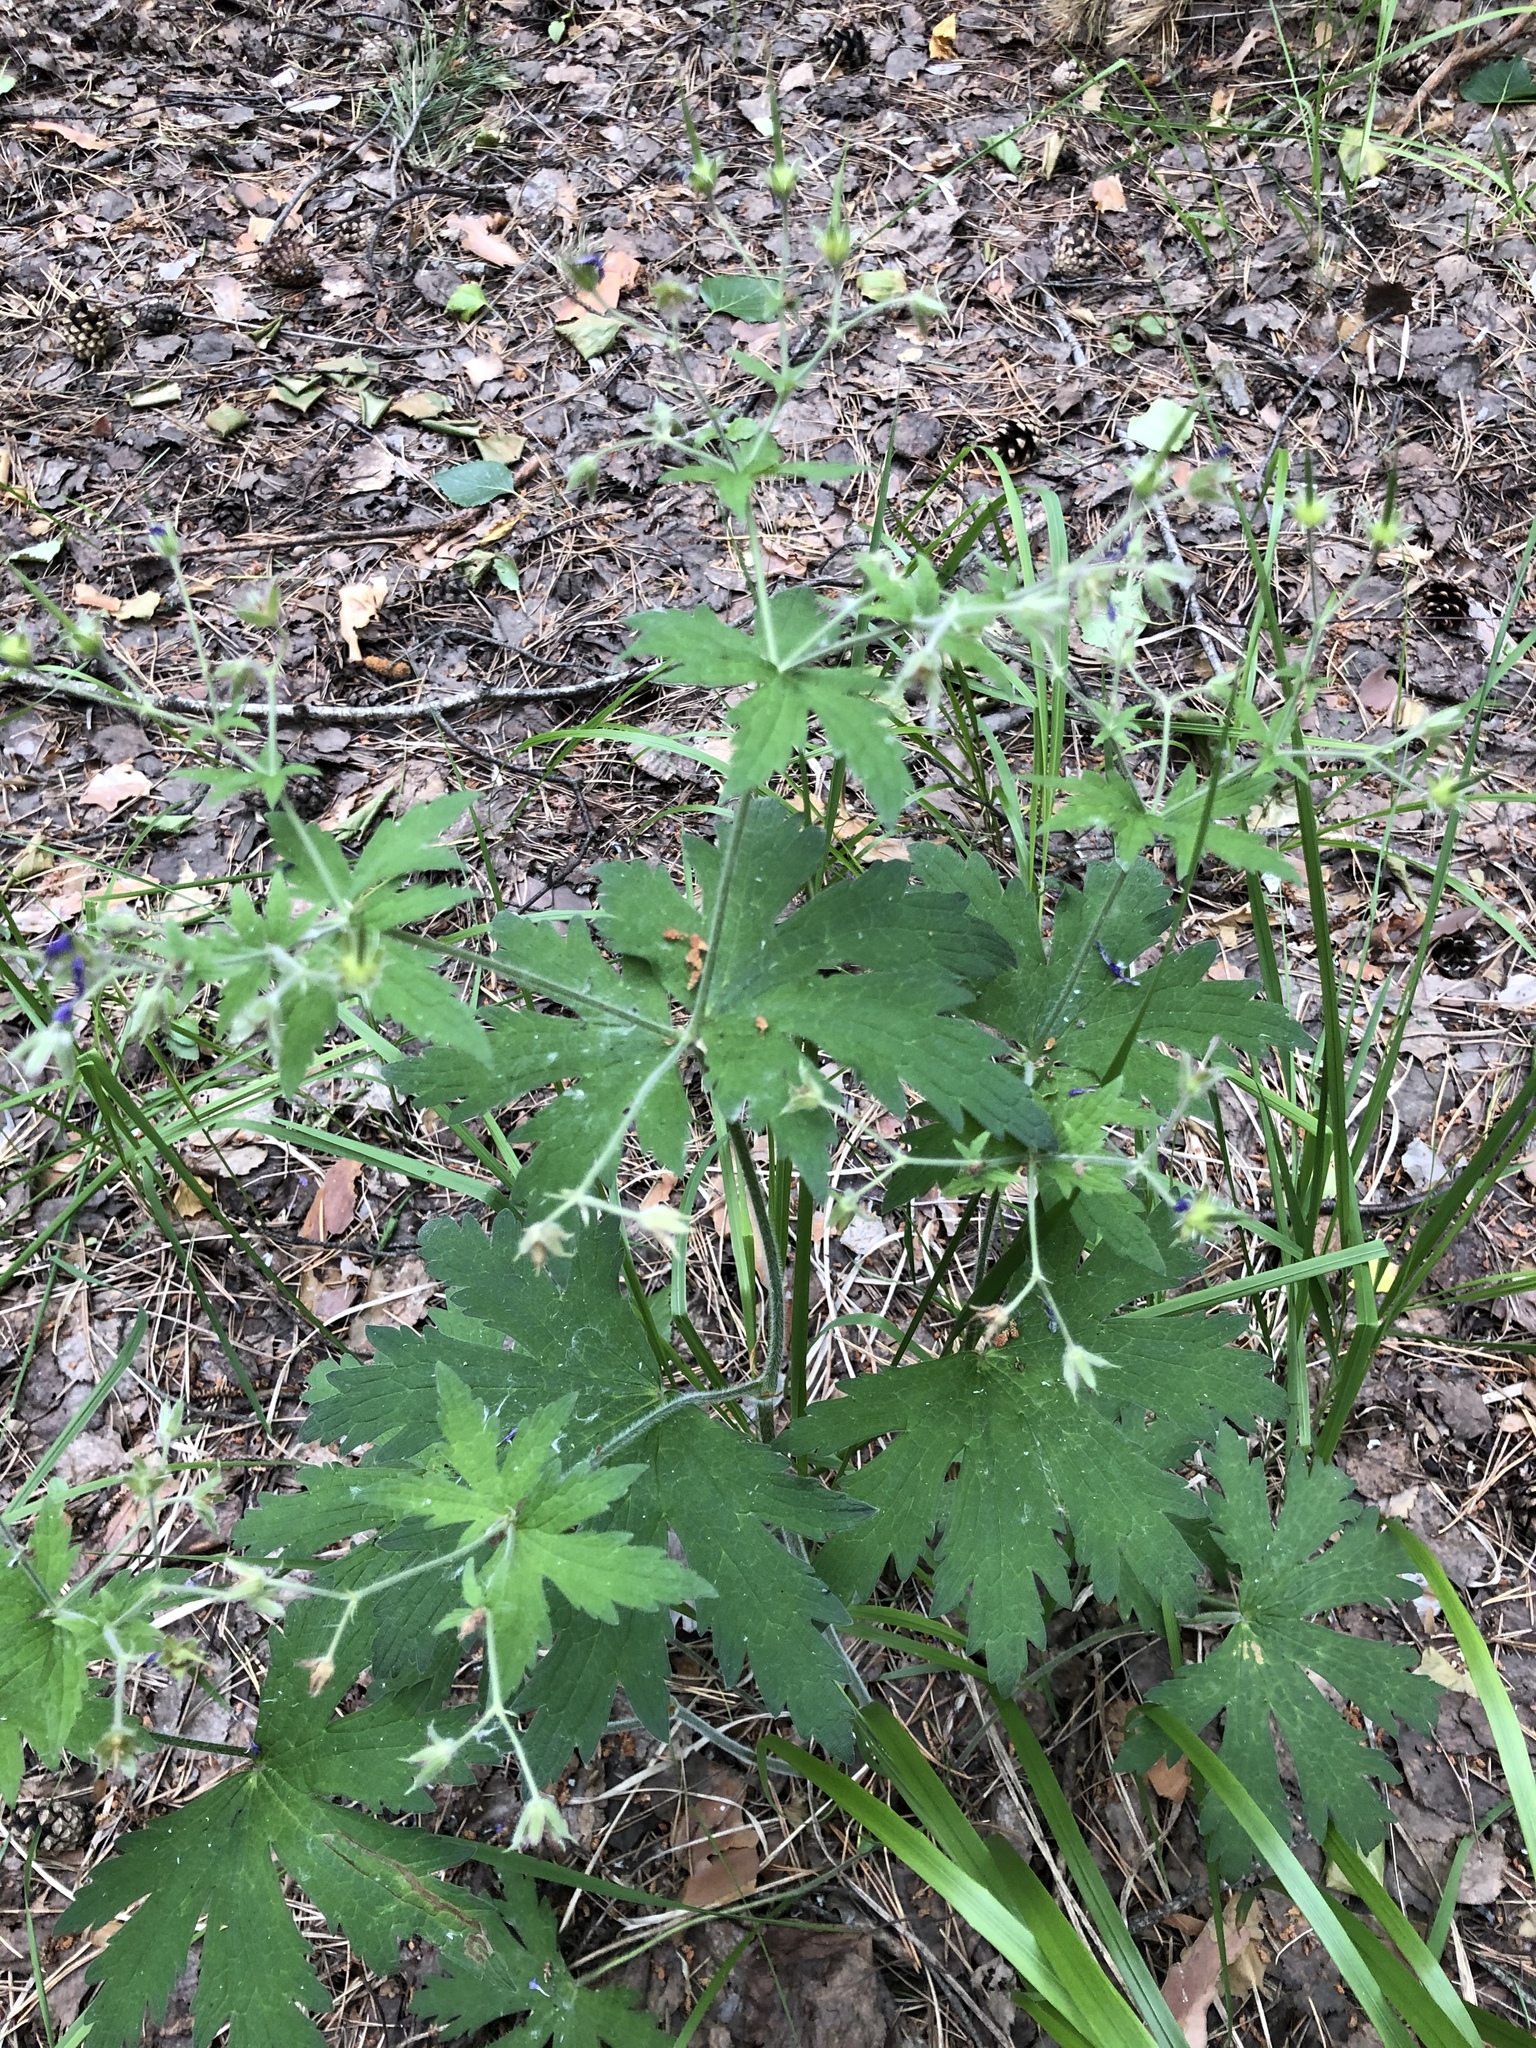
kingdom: Plantae
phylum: Tracheophyta
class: Magnoliopsida
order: Geraniales
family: Geraniaceae
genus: Geranium
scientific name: Geranium sylvaticum
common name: Wood crane's-bill
